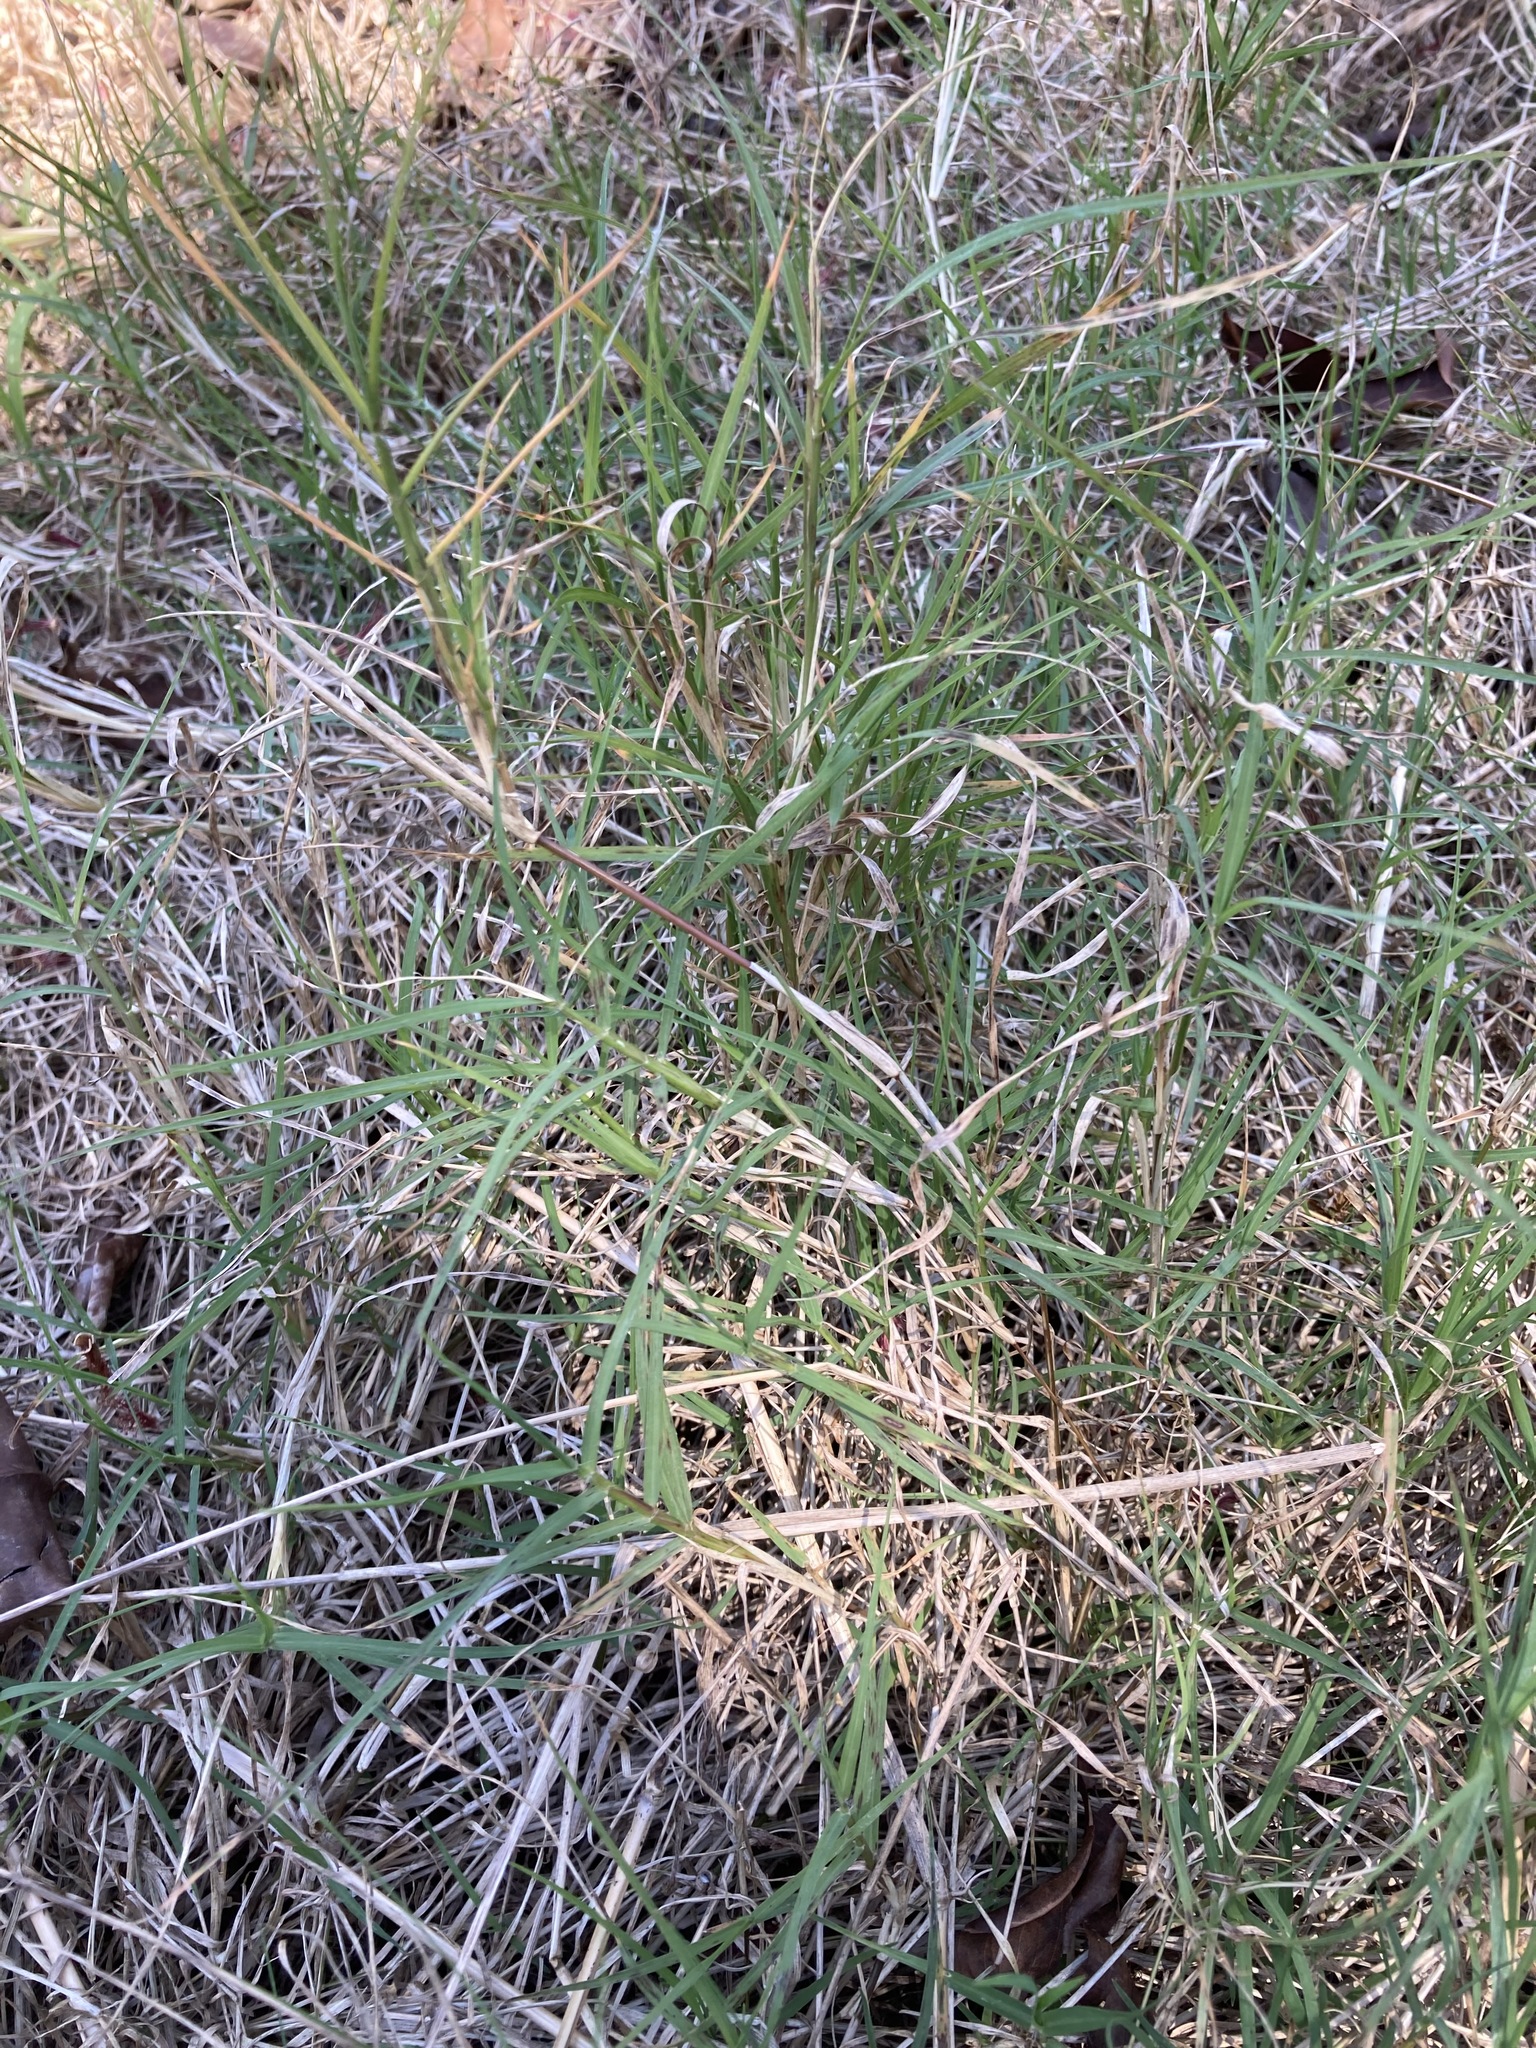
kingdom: Plantae
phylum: Tracheophyta
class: Liliopsida
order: Poales
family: Poaceae
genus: Cynodon
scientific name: Cynodon dactylon
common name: Bermuda grass
